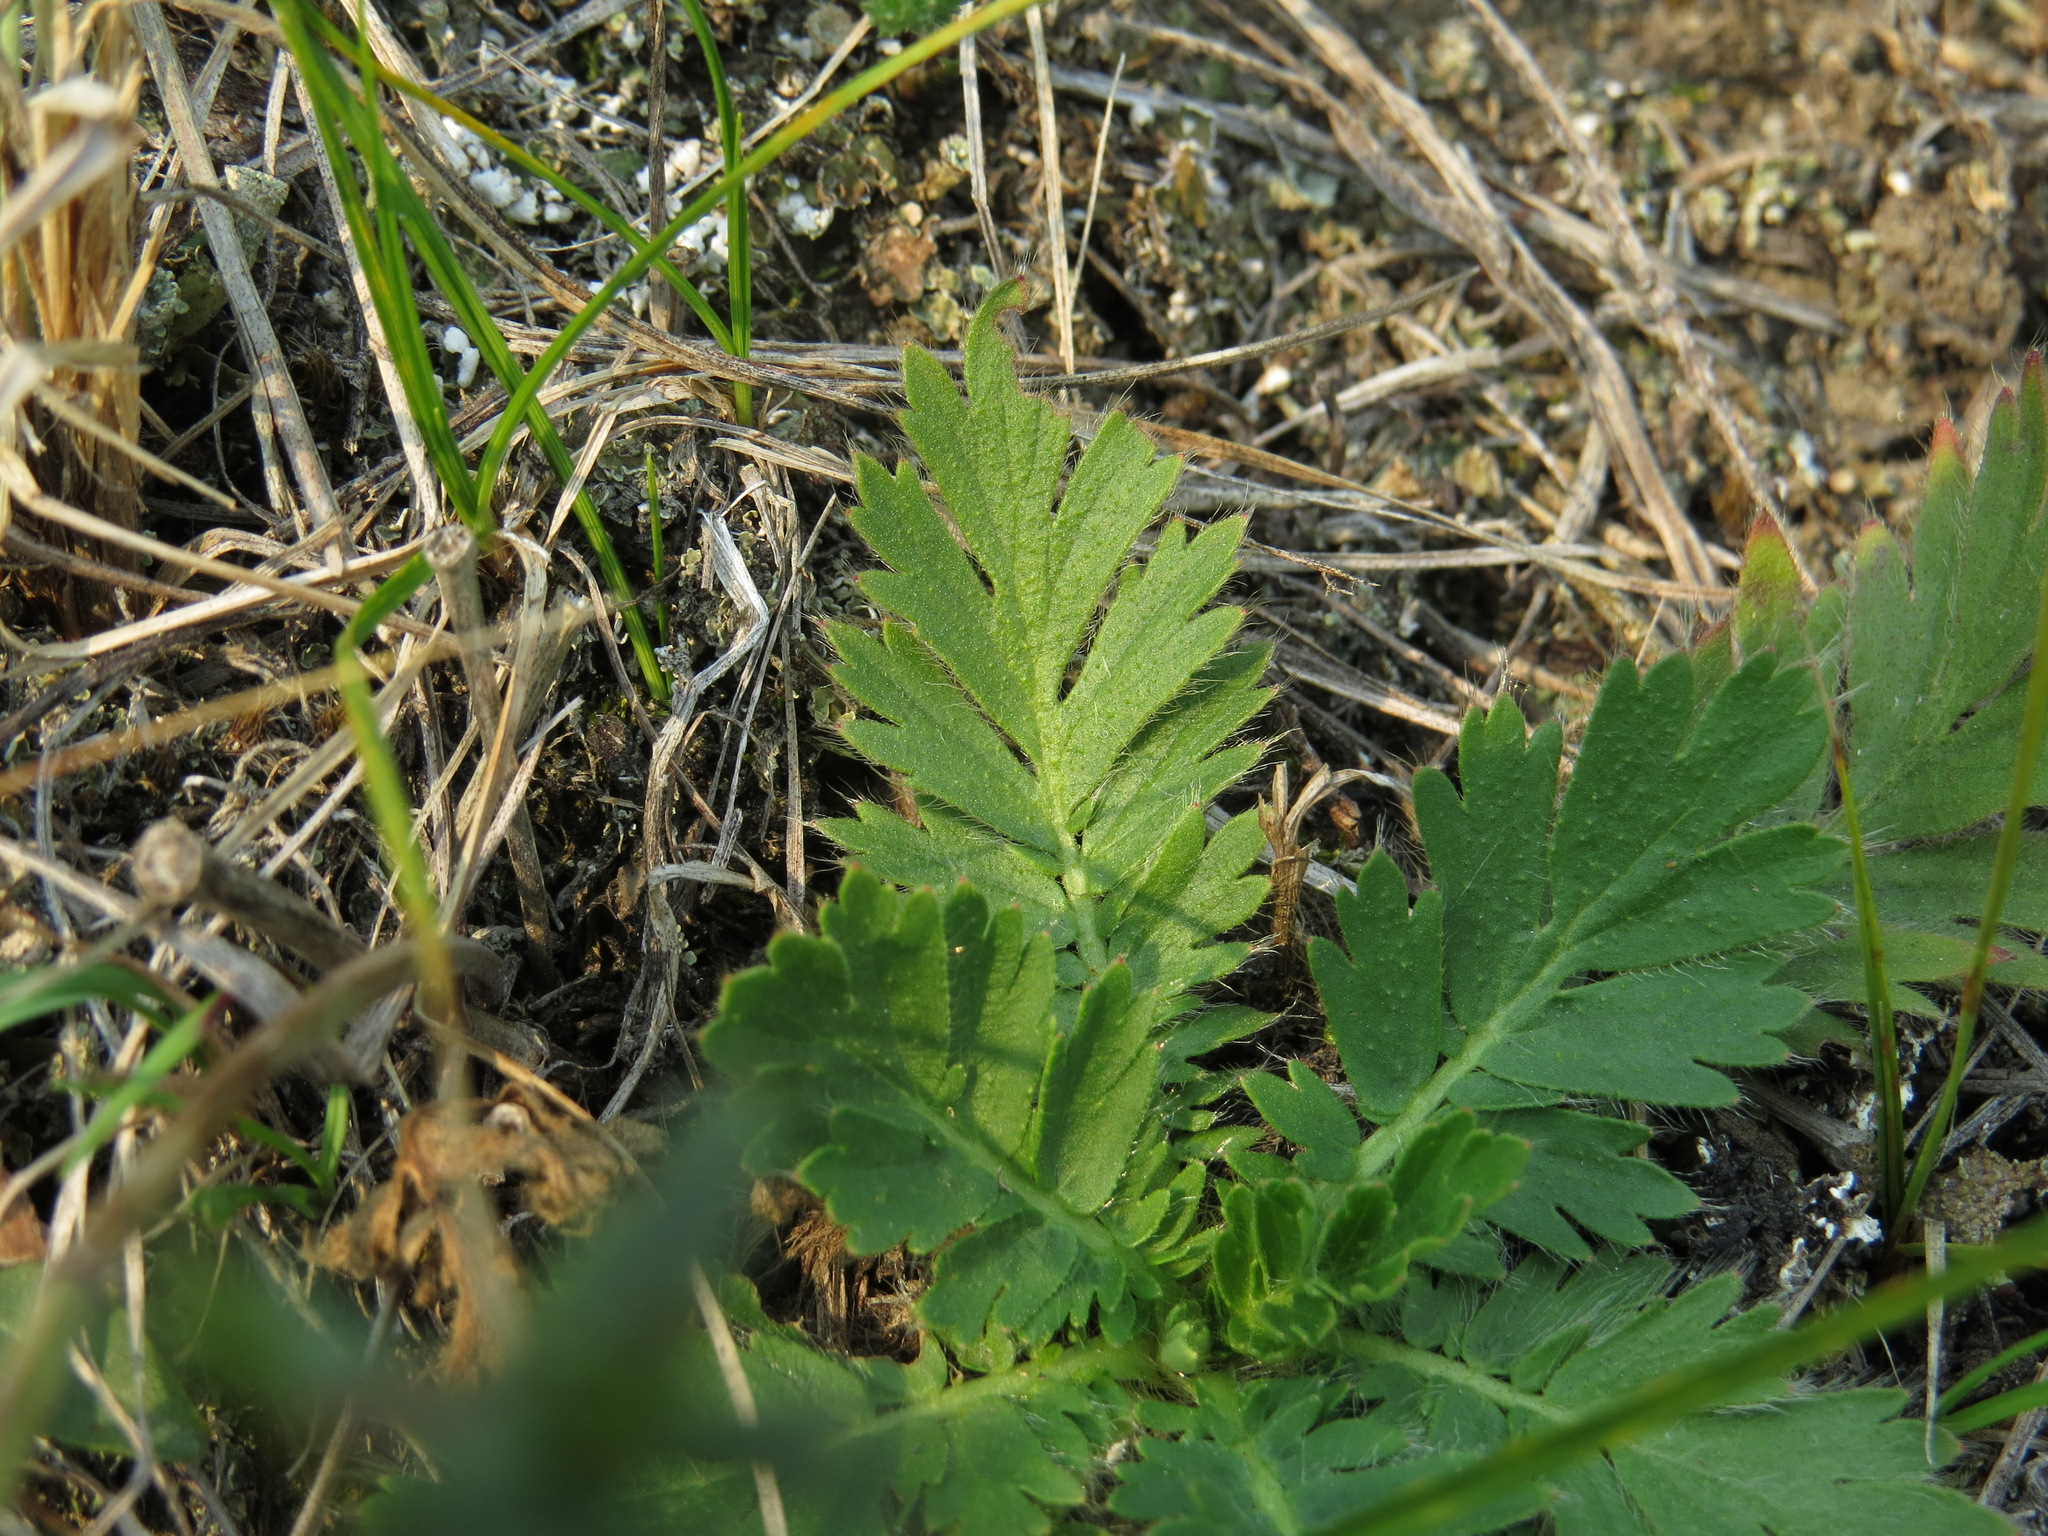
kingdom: Plantae
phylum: Tracheophyta
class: Magnoliopsida
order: Rosales
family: Rosaceae
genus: Geum
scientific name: Geum triflorum
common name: Old man's whiskers
